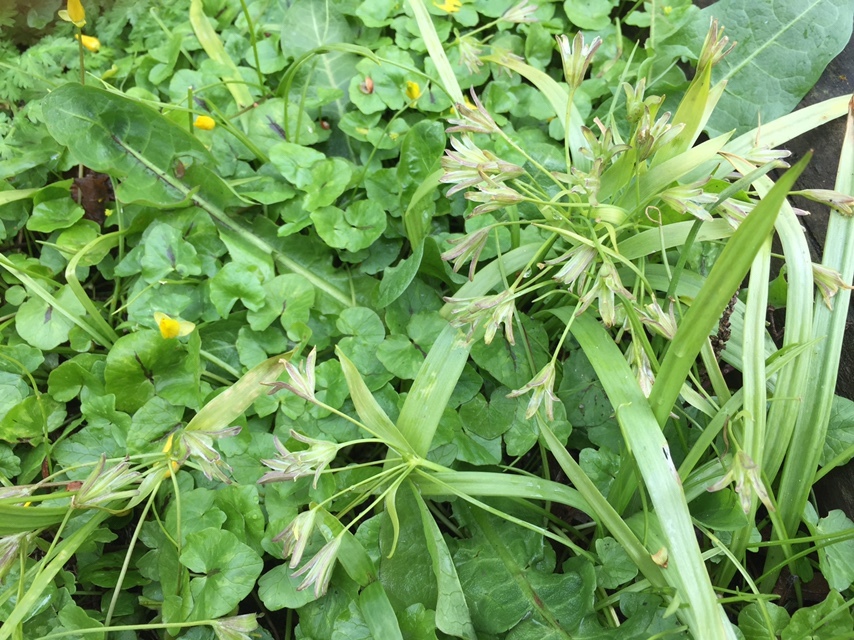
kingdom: Plantae
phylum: Tracheophyta
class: Liliopsida
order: Liliales
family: Liliaceae
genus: Gagea
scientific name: Gagea lutea
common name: Yellow star-of-bethlehem
